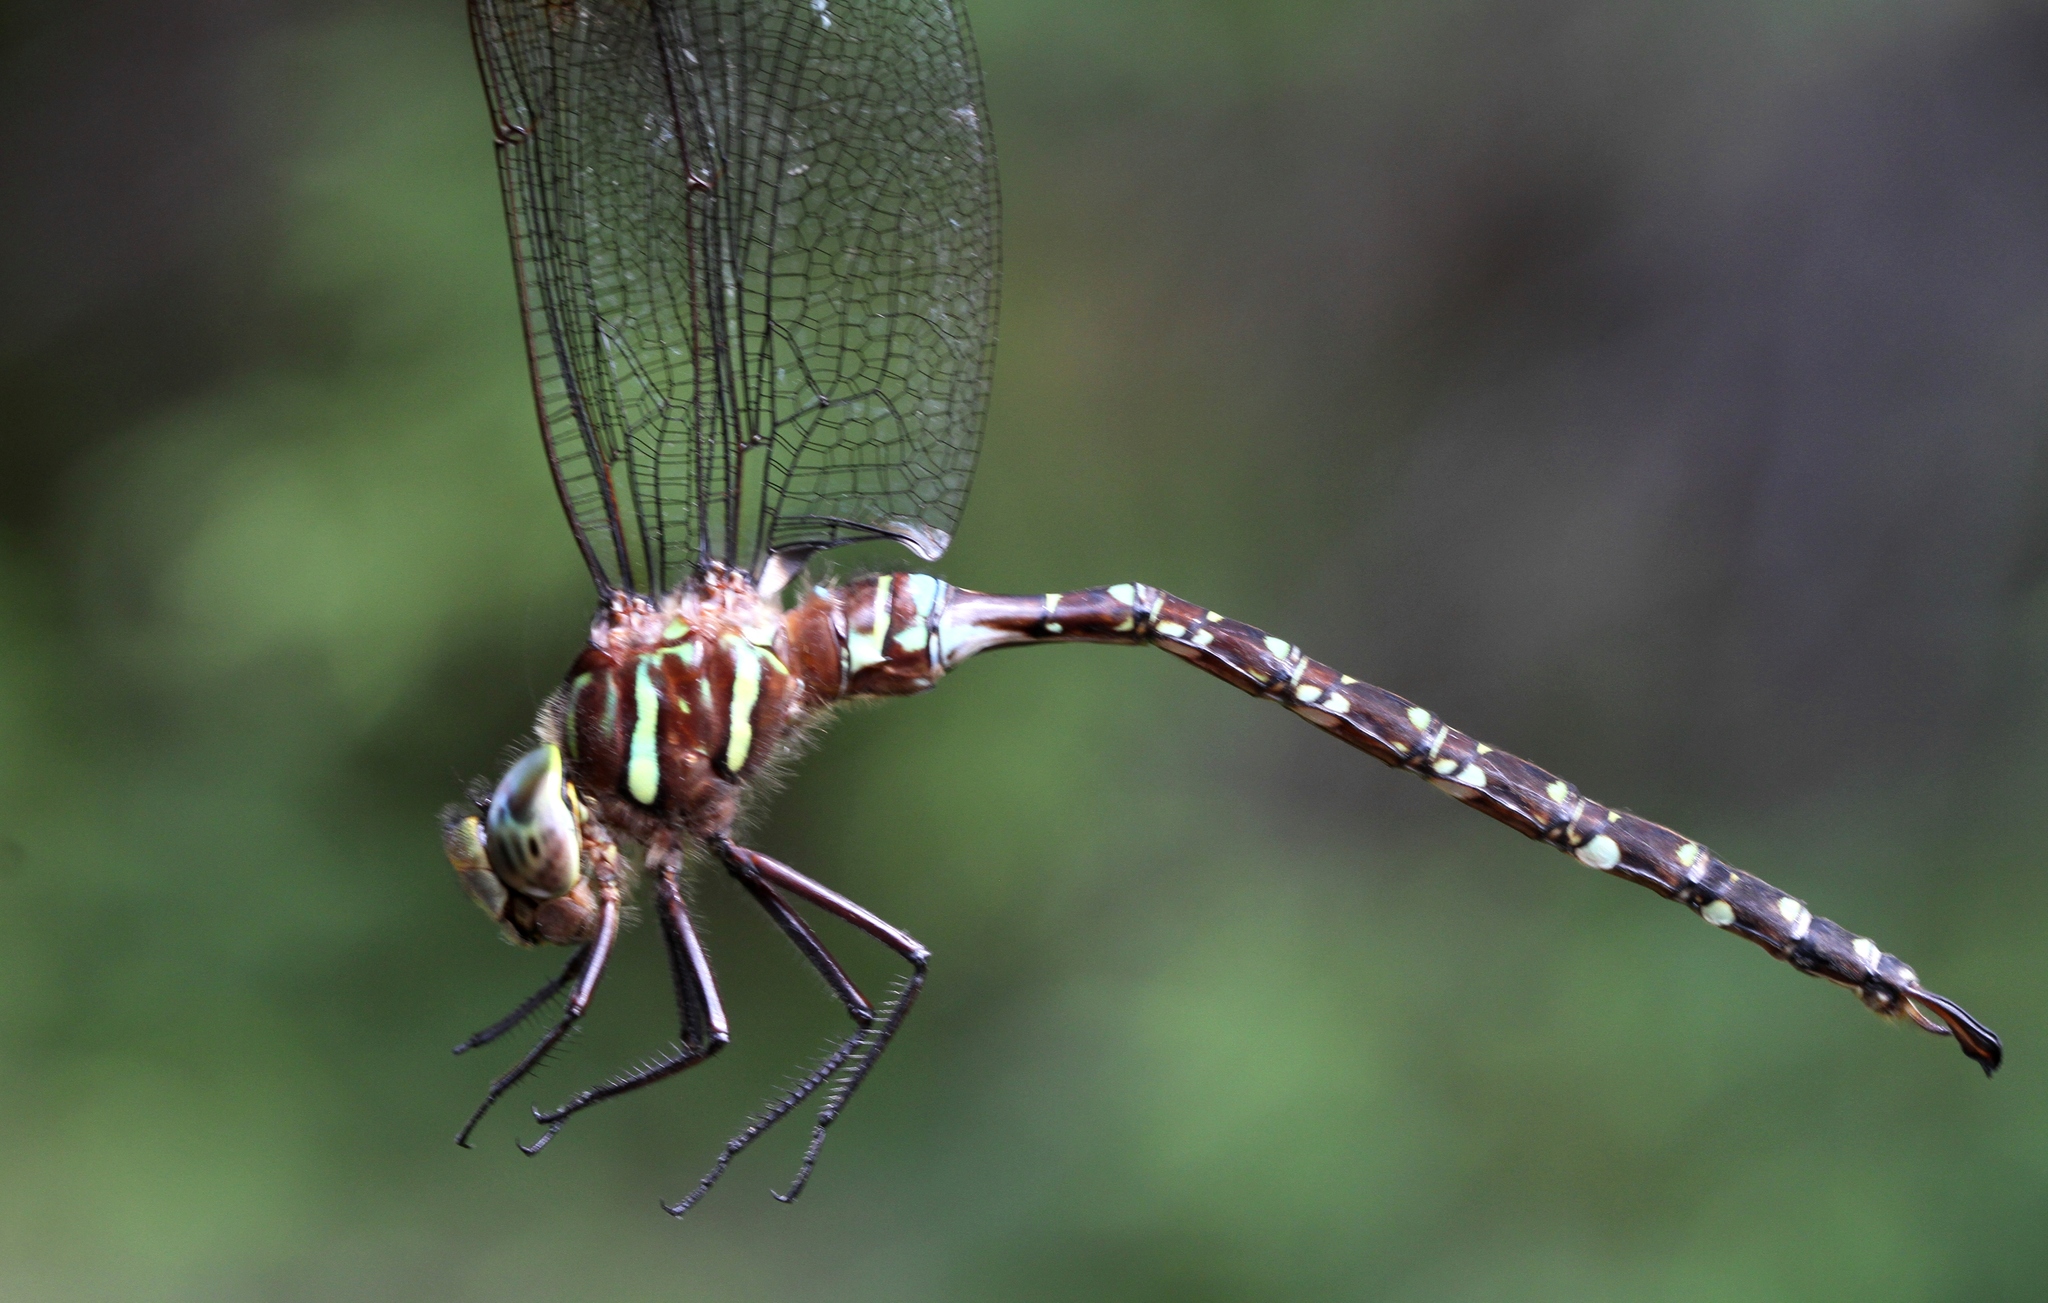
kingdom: Animalia
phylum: Arthropoda
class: Insecta
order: Odonata
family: Aeshnidae
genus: Aeshna
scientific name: Aeshna umbrosa
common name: Shadow darner
